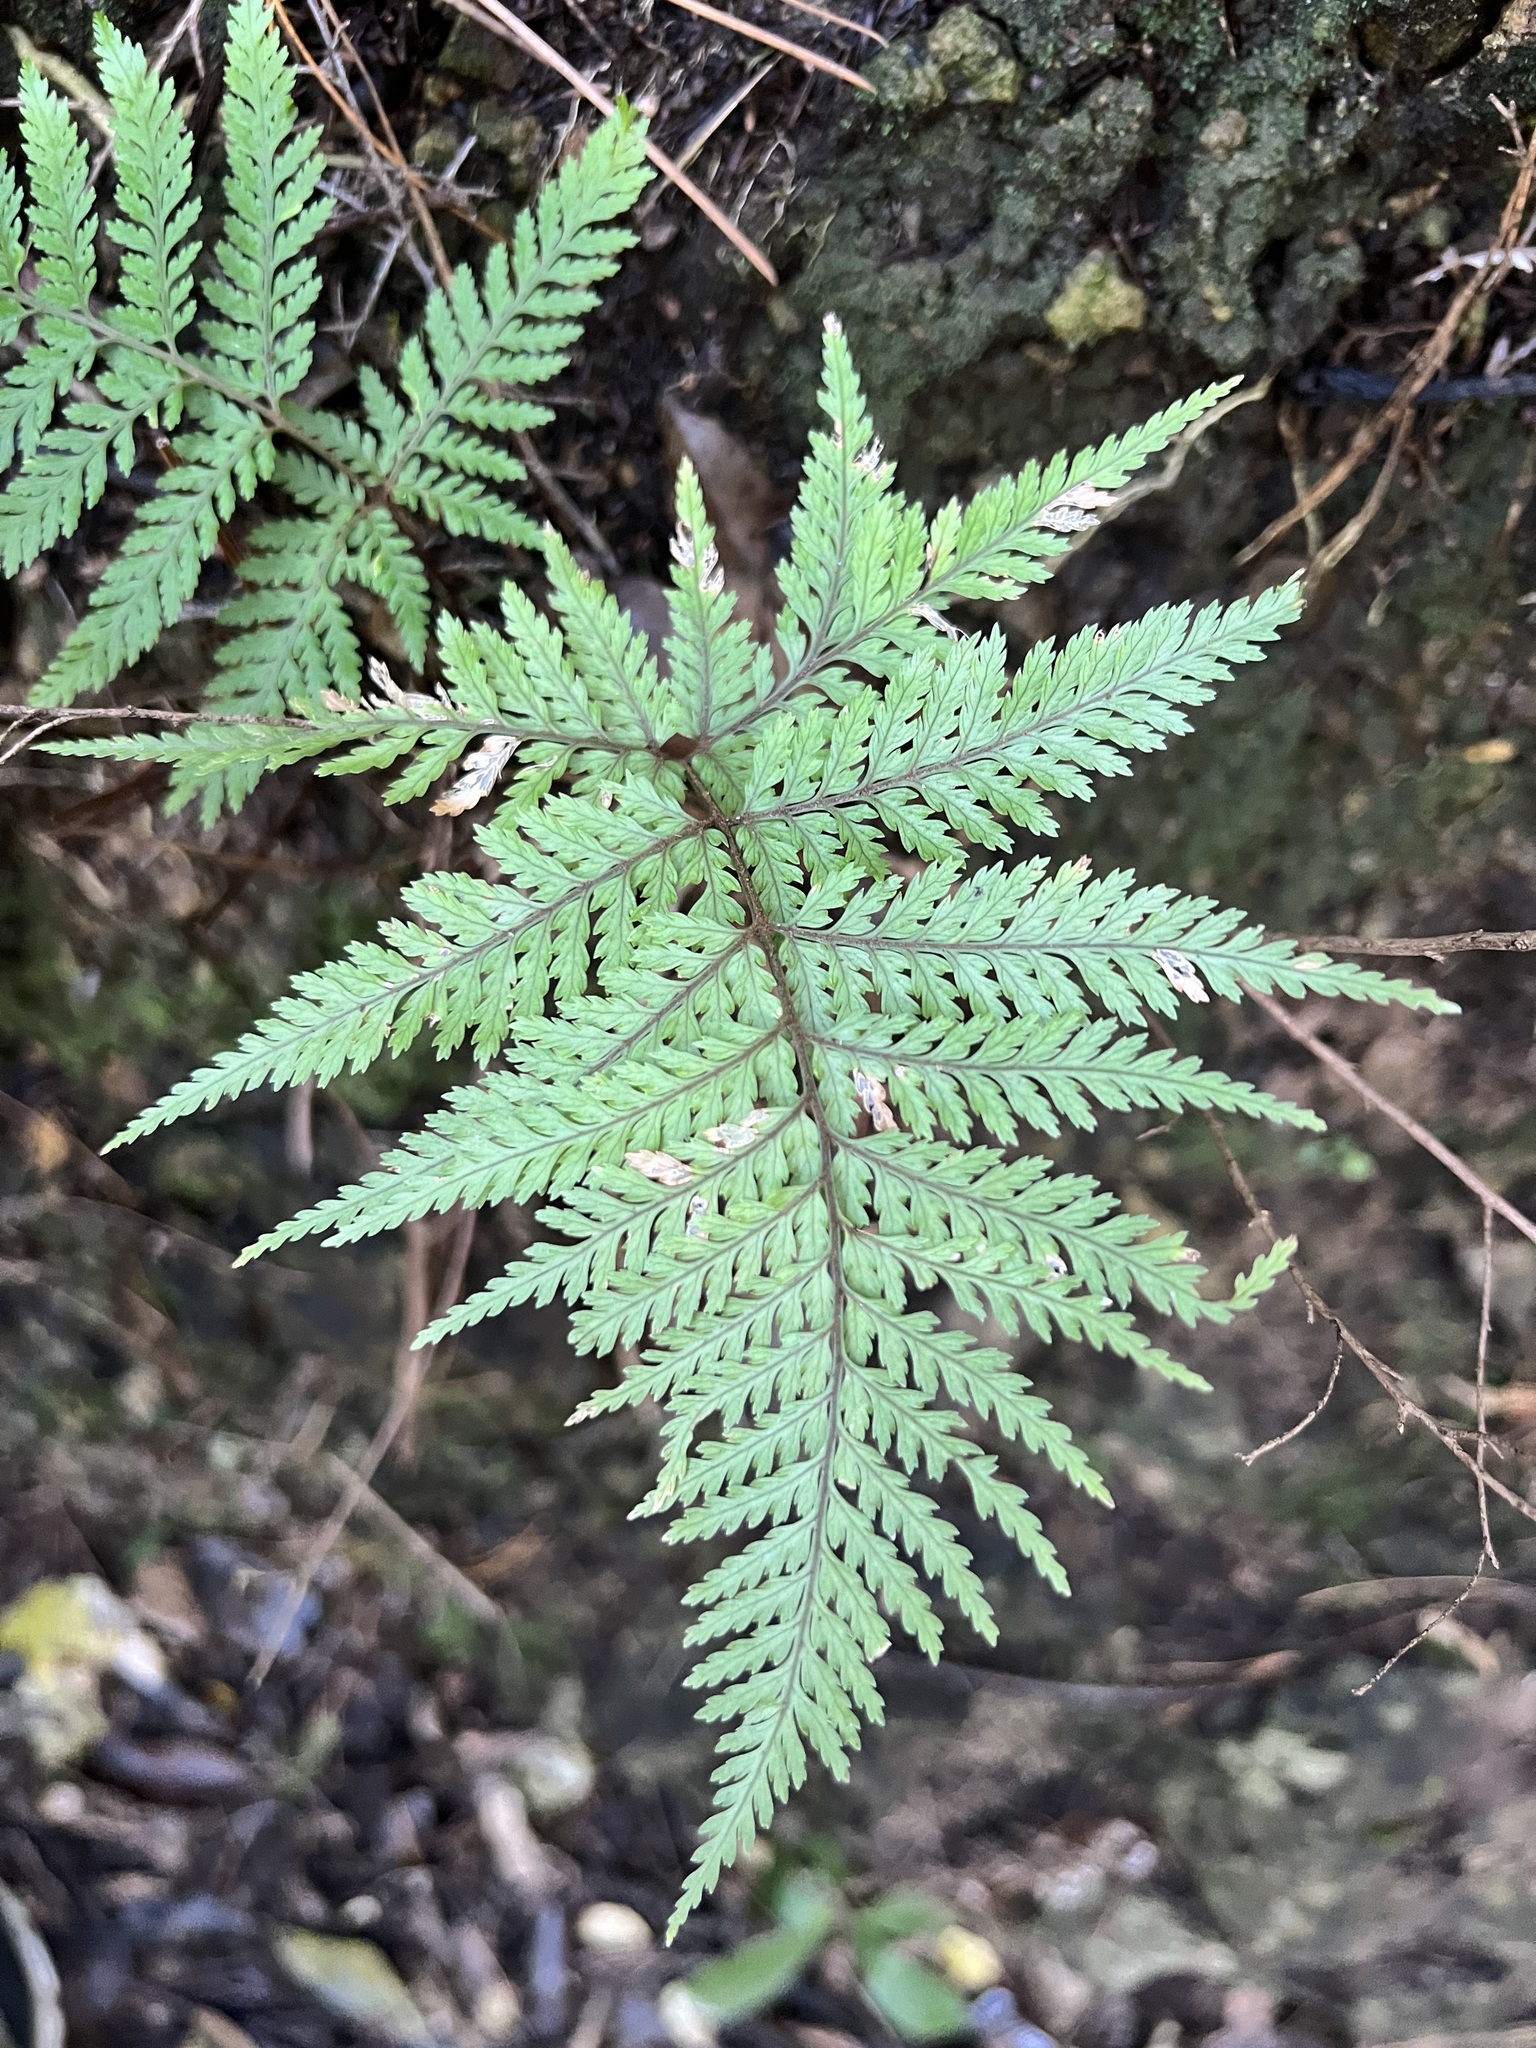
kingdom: Plantae
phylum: Tracheophyta
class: Polypodiopsida
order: Polypodiales
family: Dryopteridaceae
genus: Parapolystichum
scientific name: Parapolystichum glabellum
